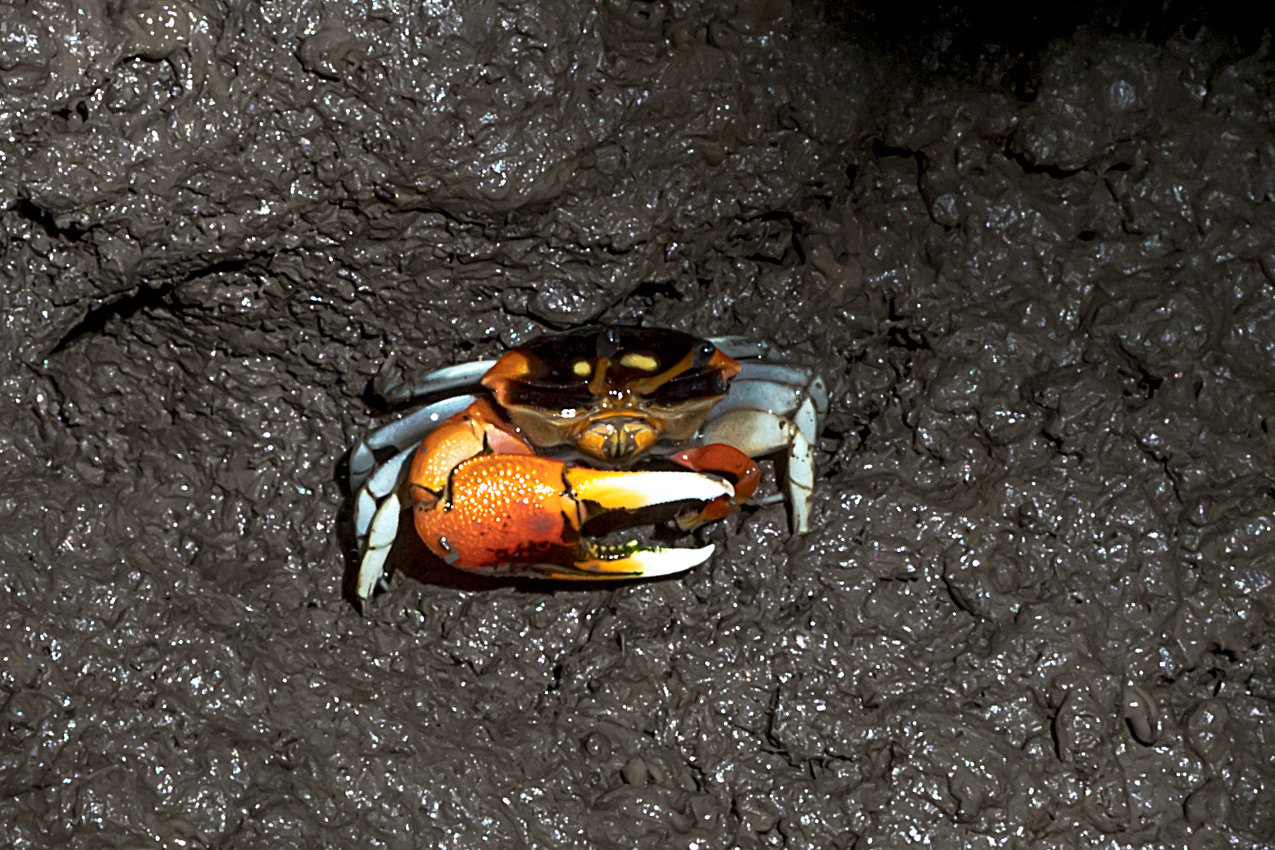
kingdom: Animalia
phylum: Arthropoda
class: Malacostraca
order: Decapoda
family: Ocypodidae
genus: Tubuca
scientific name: Tubuca coarctata
